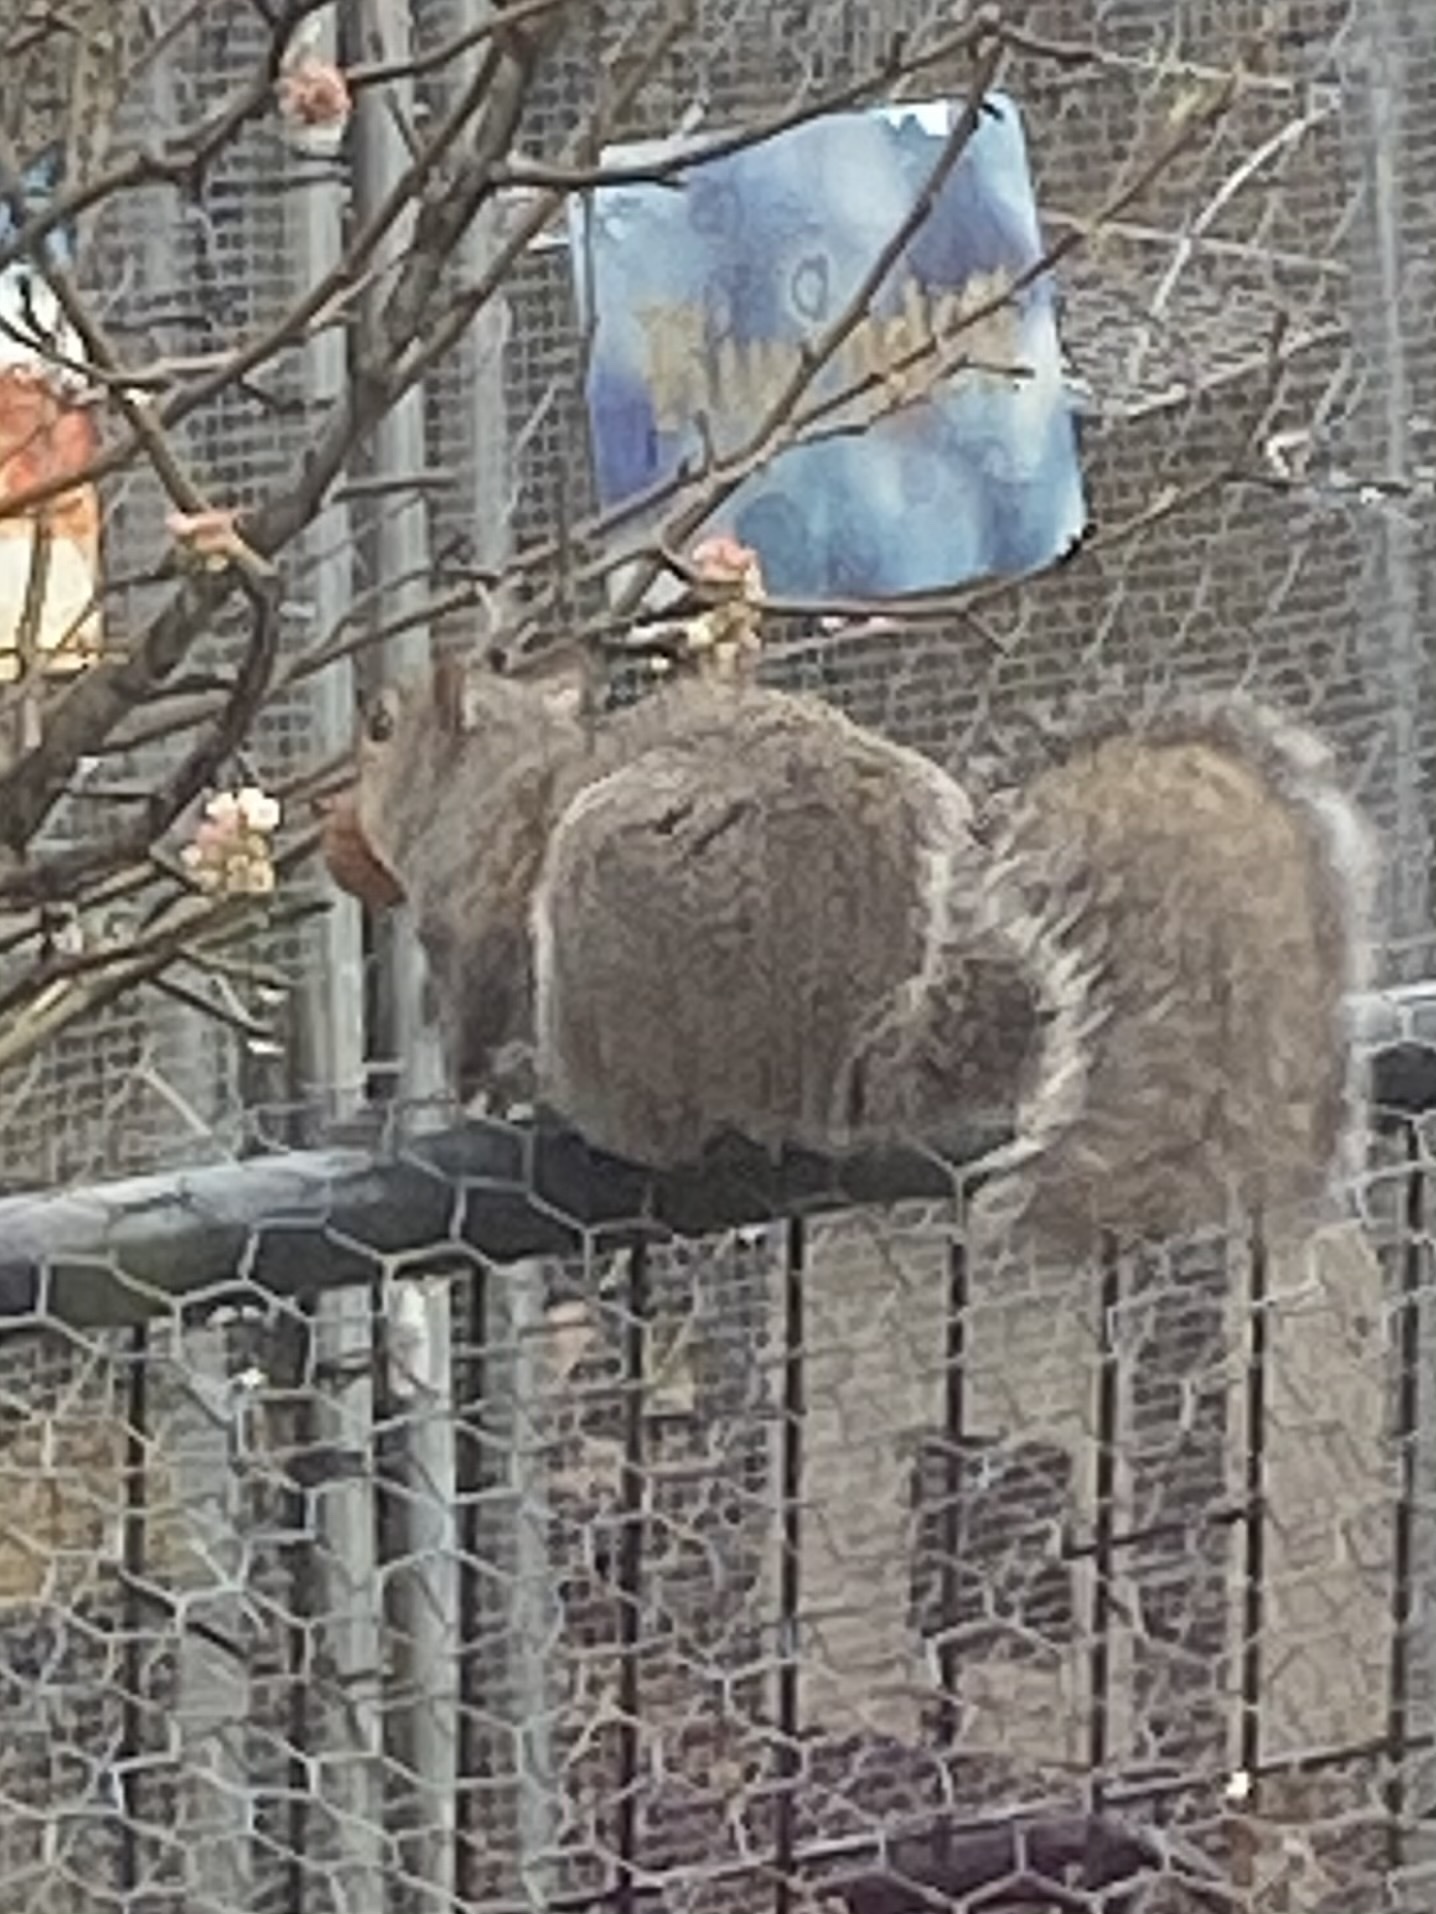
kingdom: Animalia
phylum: Chordata
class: Mammalia
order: Rodentia
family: Sciuridae
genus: Sciurus
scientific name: Sciurus carolinensis
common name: Eastern gray squirrel
